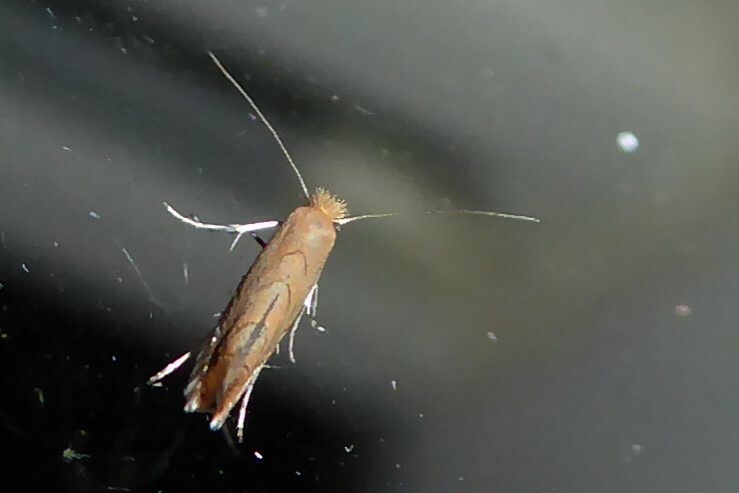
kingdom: Animalia
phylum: Arthropoda
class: Insecta
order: Lepidoptera
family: Gracillariidae
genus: Phyllonorycter
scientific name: Phyllonorycter messaniella
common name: Garden midget
